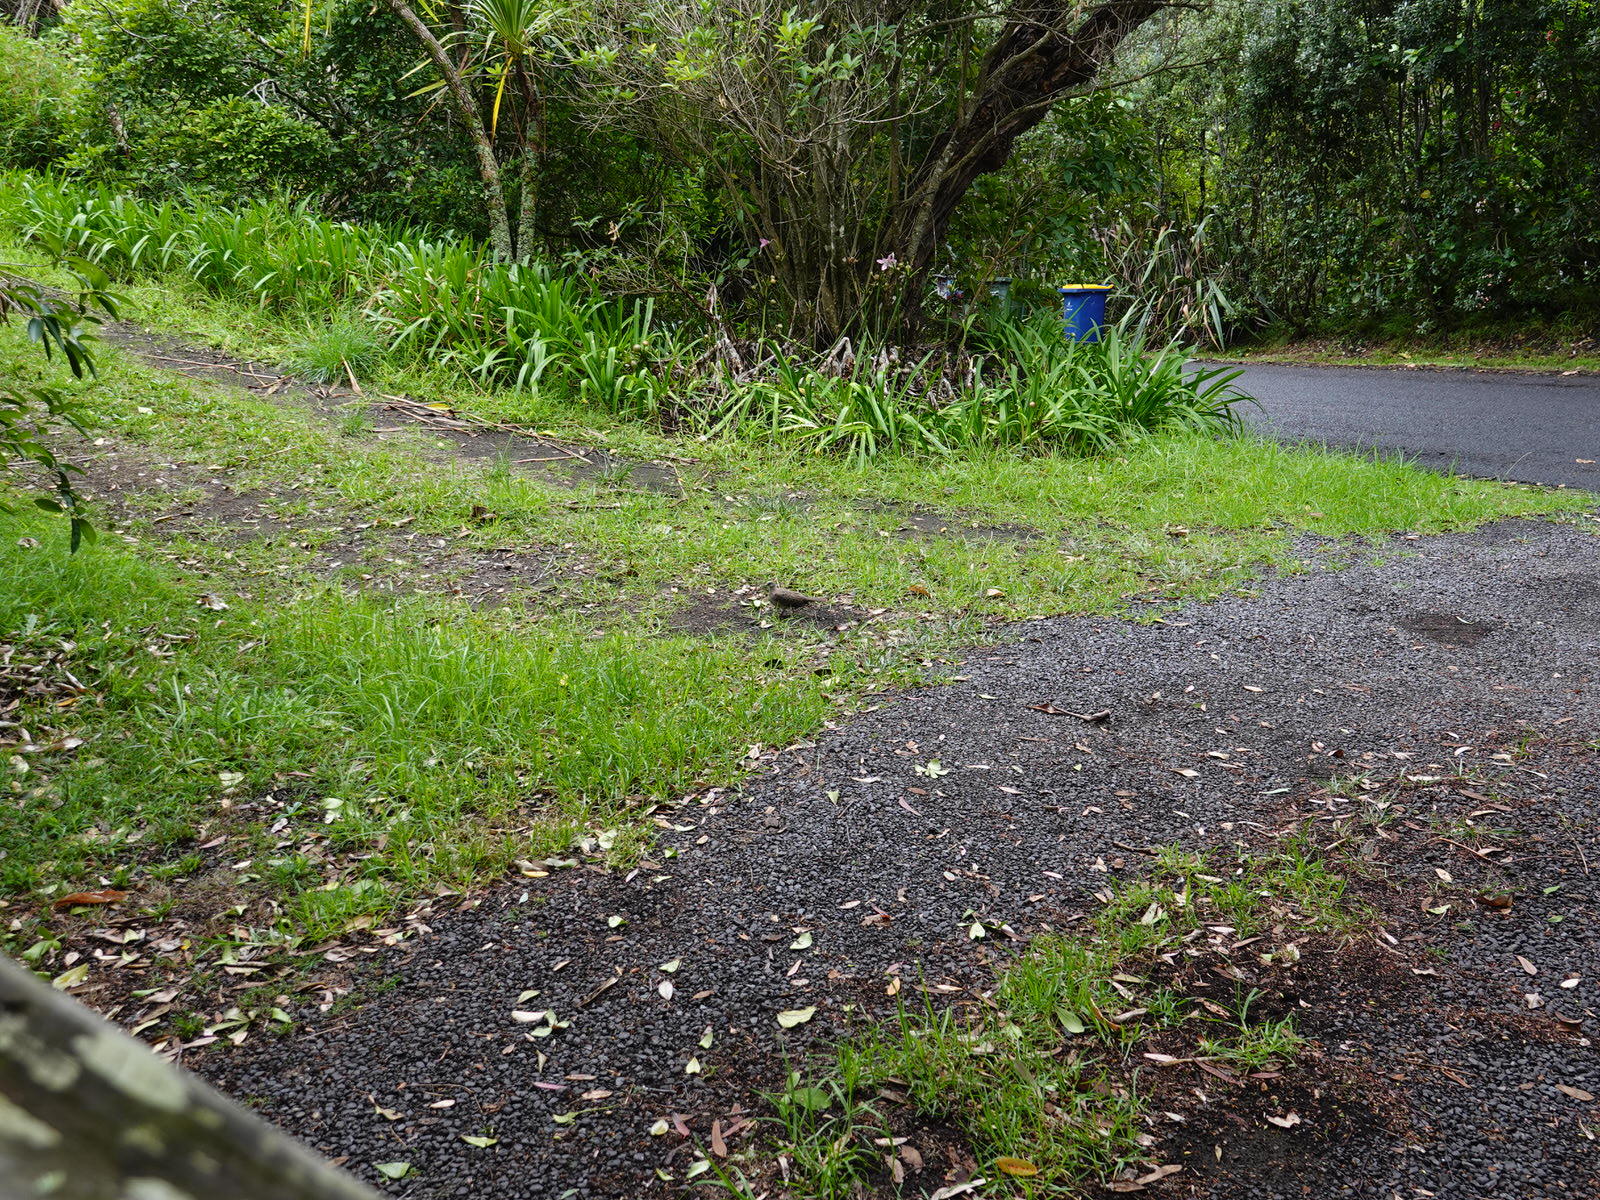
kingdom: Animalia
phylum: Chordata
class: Aves
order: Columbiformes
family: Columbidae
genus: Spilopelia
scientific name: Spilopelia chinensis
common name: Spotted dove
